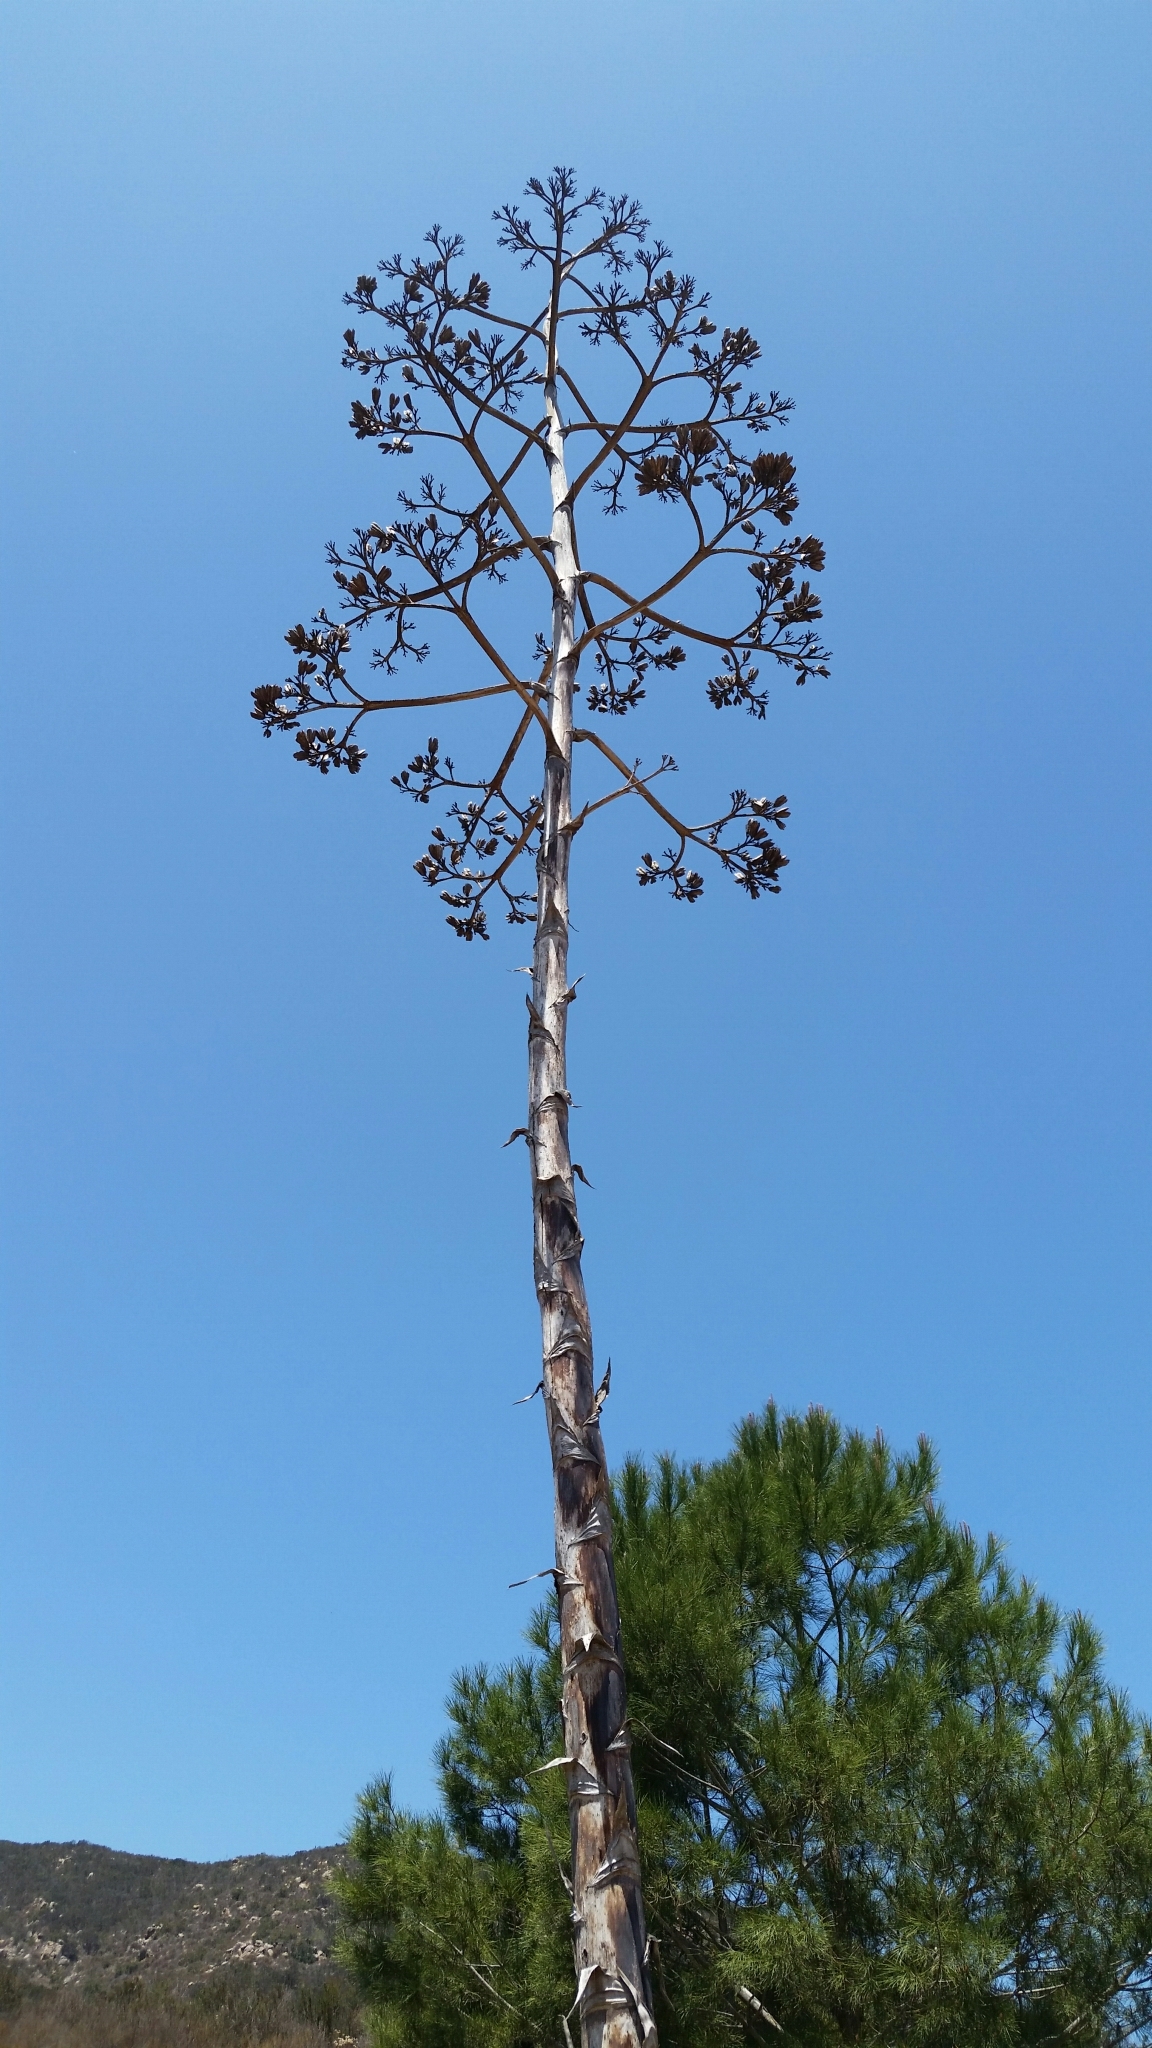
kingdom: Plantae
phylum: Tracheophyta
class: Liliopsida
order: Asparagales
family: Asparagaceae
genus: Agave
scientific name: Agave americana
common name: Centuryplant
